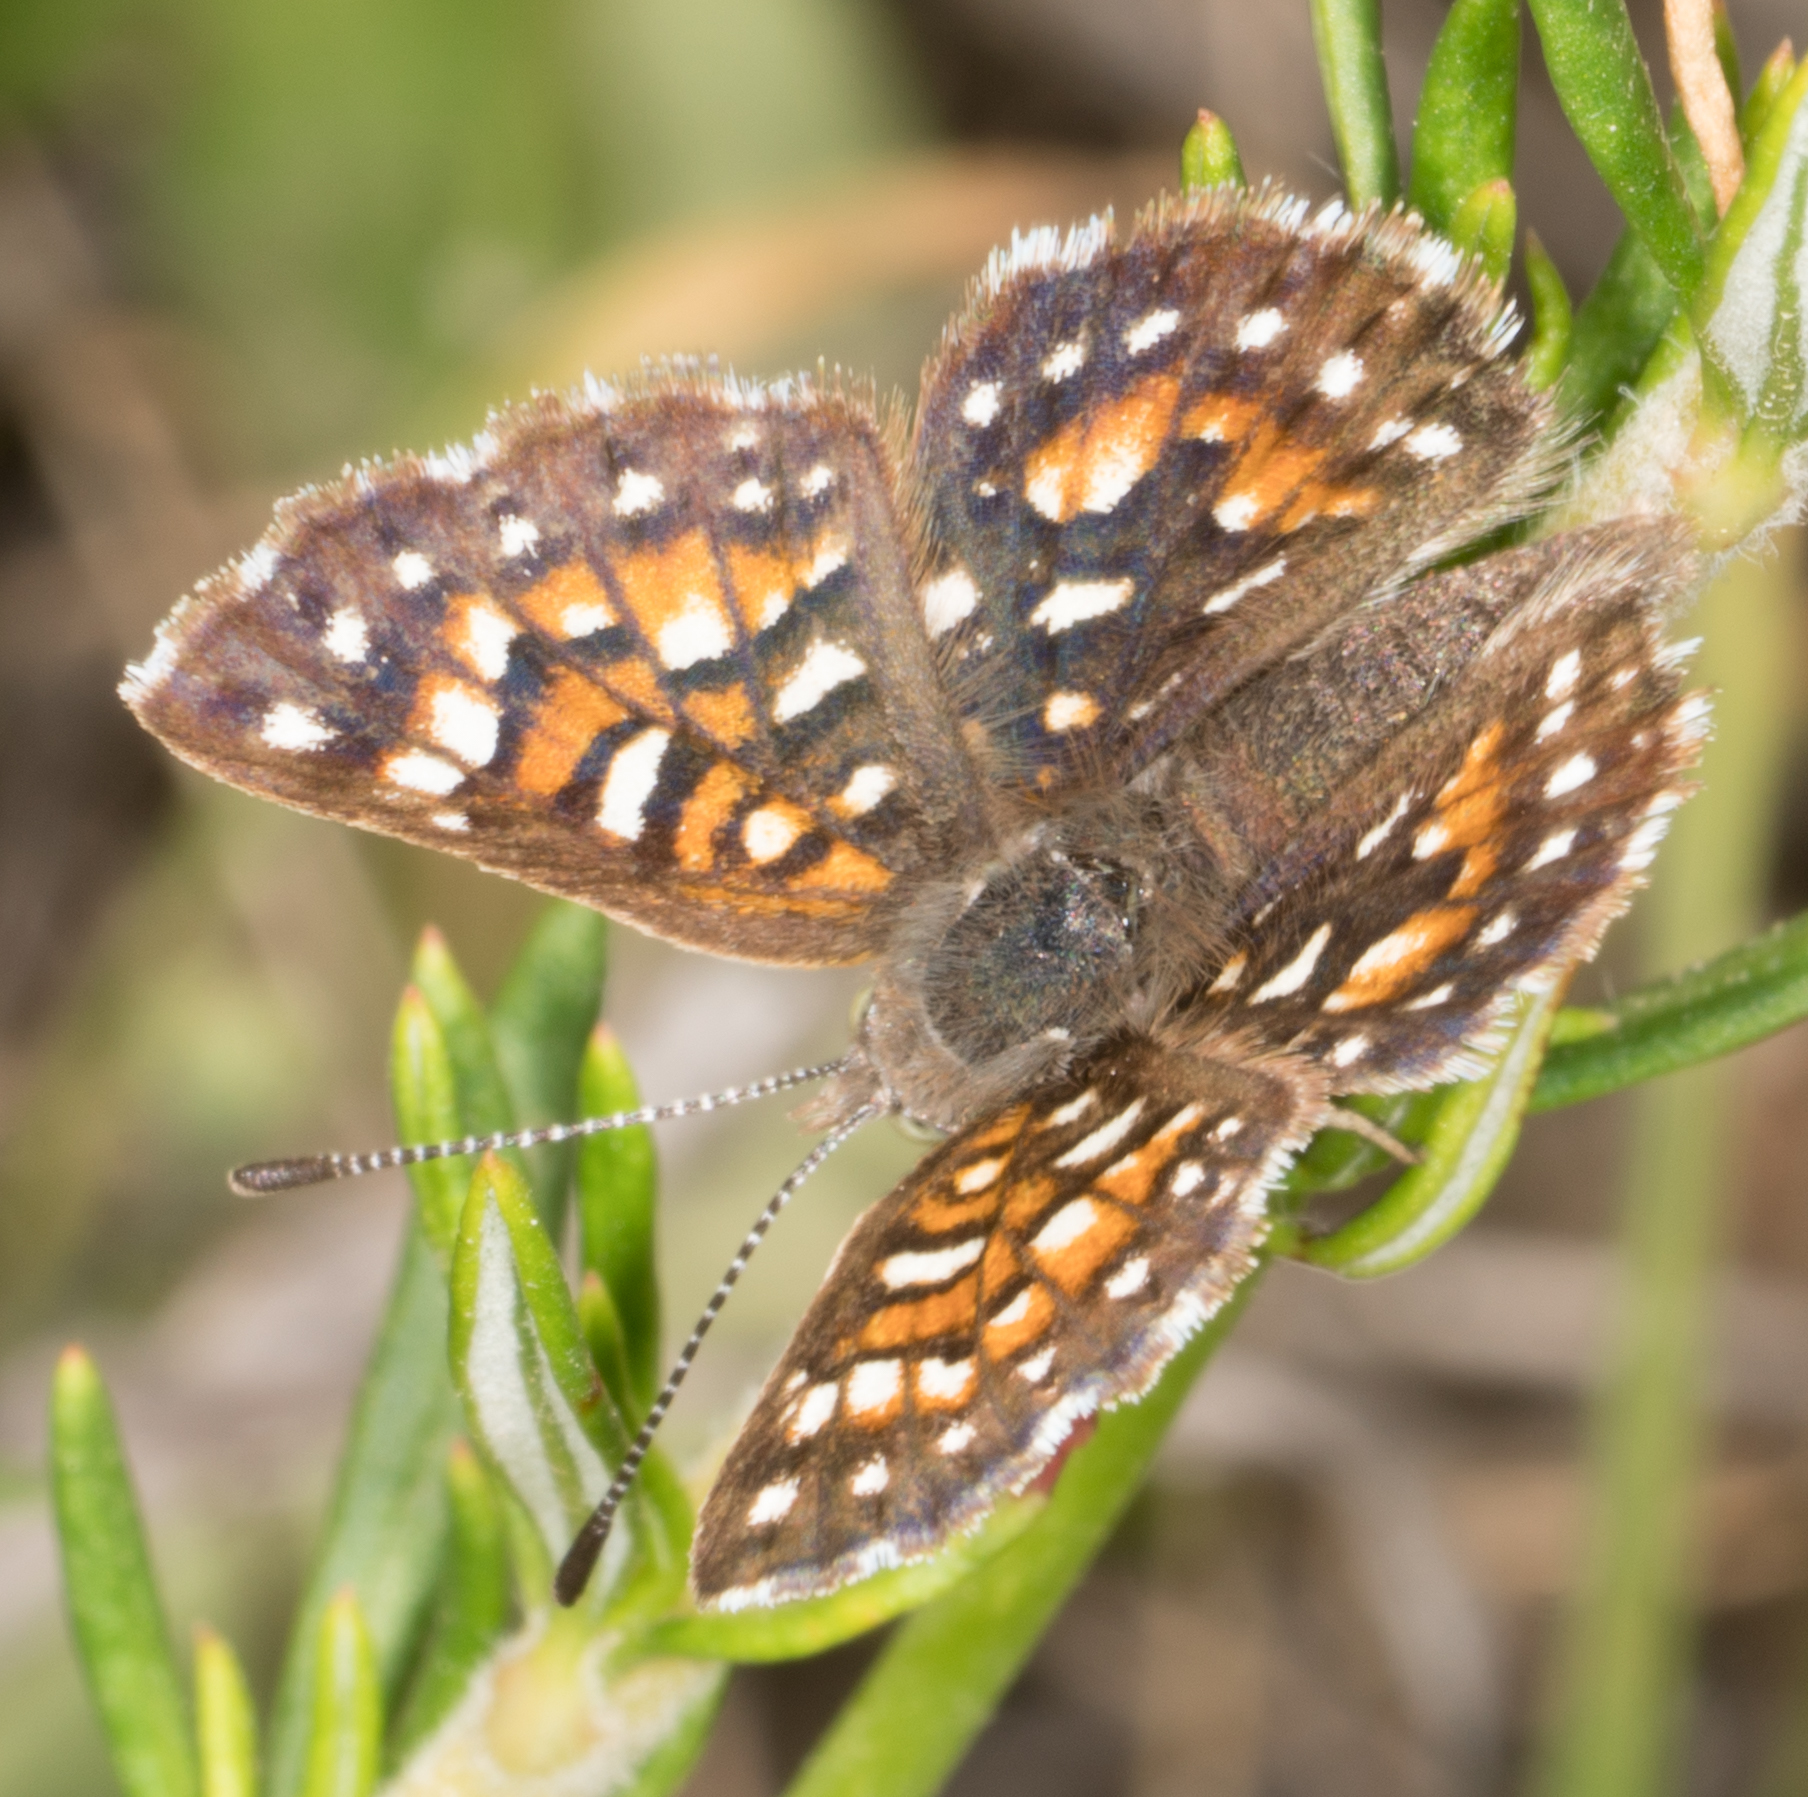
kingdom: Animalia
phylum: Arthropoda
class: Insecta
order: Lepidoptera
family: Riodinidae
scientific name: Riodinidae
